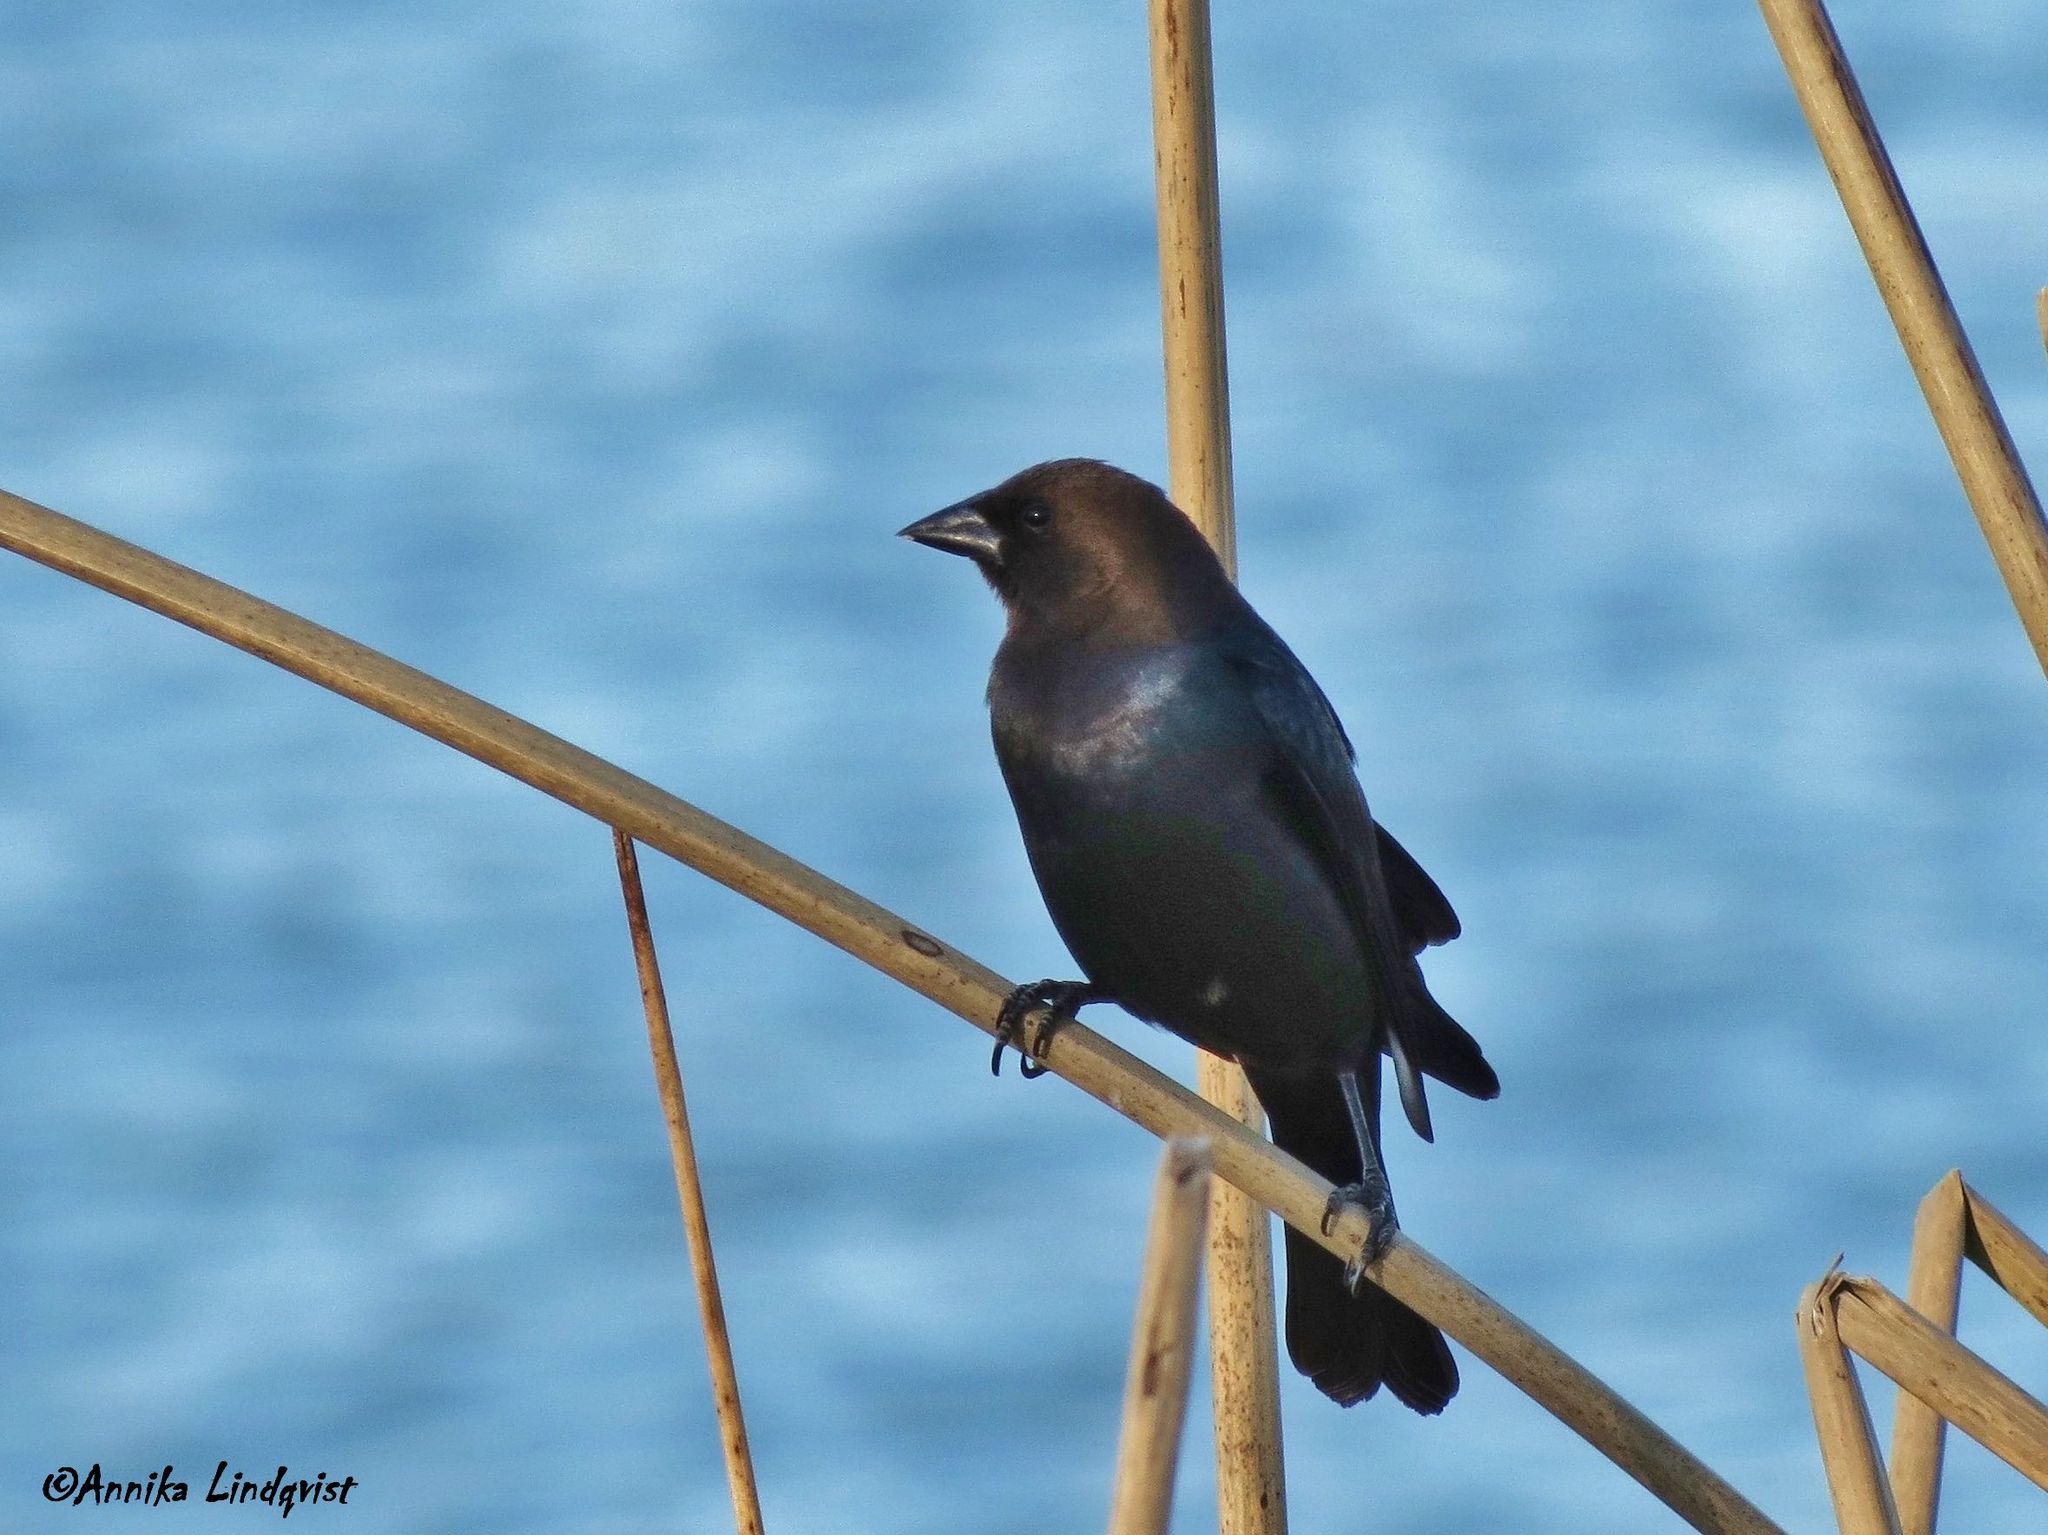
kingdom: Animalia
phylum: Chordata
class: Aves
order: Passeriformes
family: Icteridae
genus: Molothrus
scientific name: Molothrus ater
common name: Brown-headed cowbird
